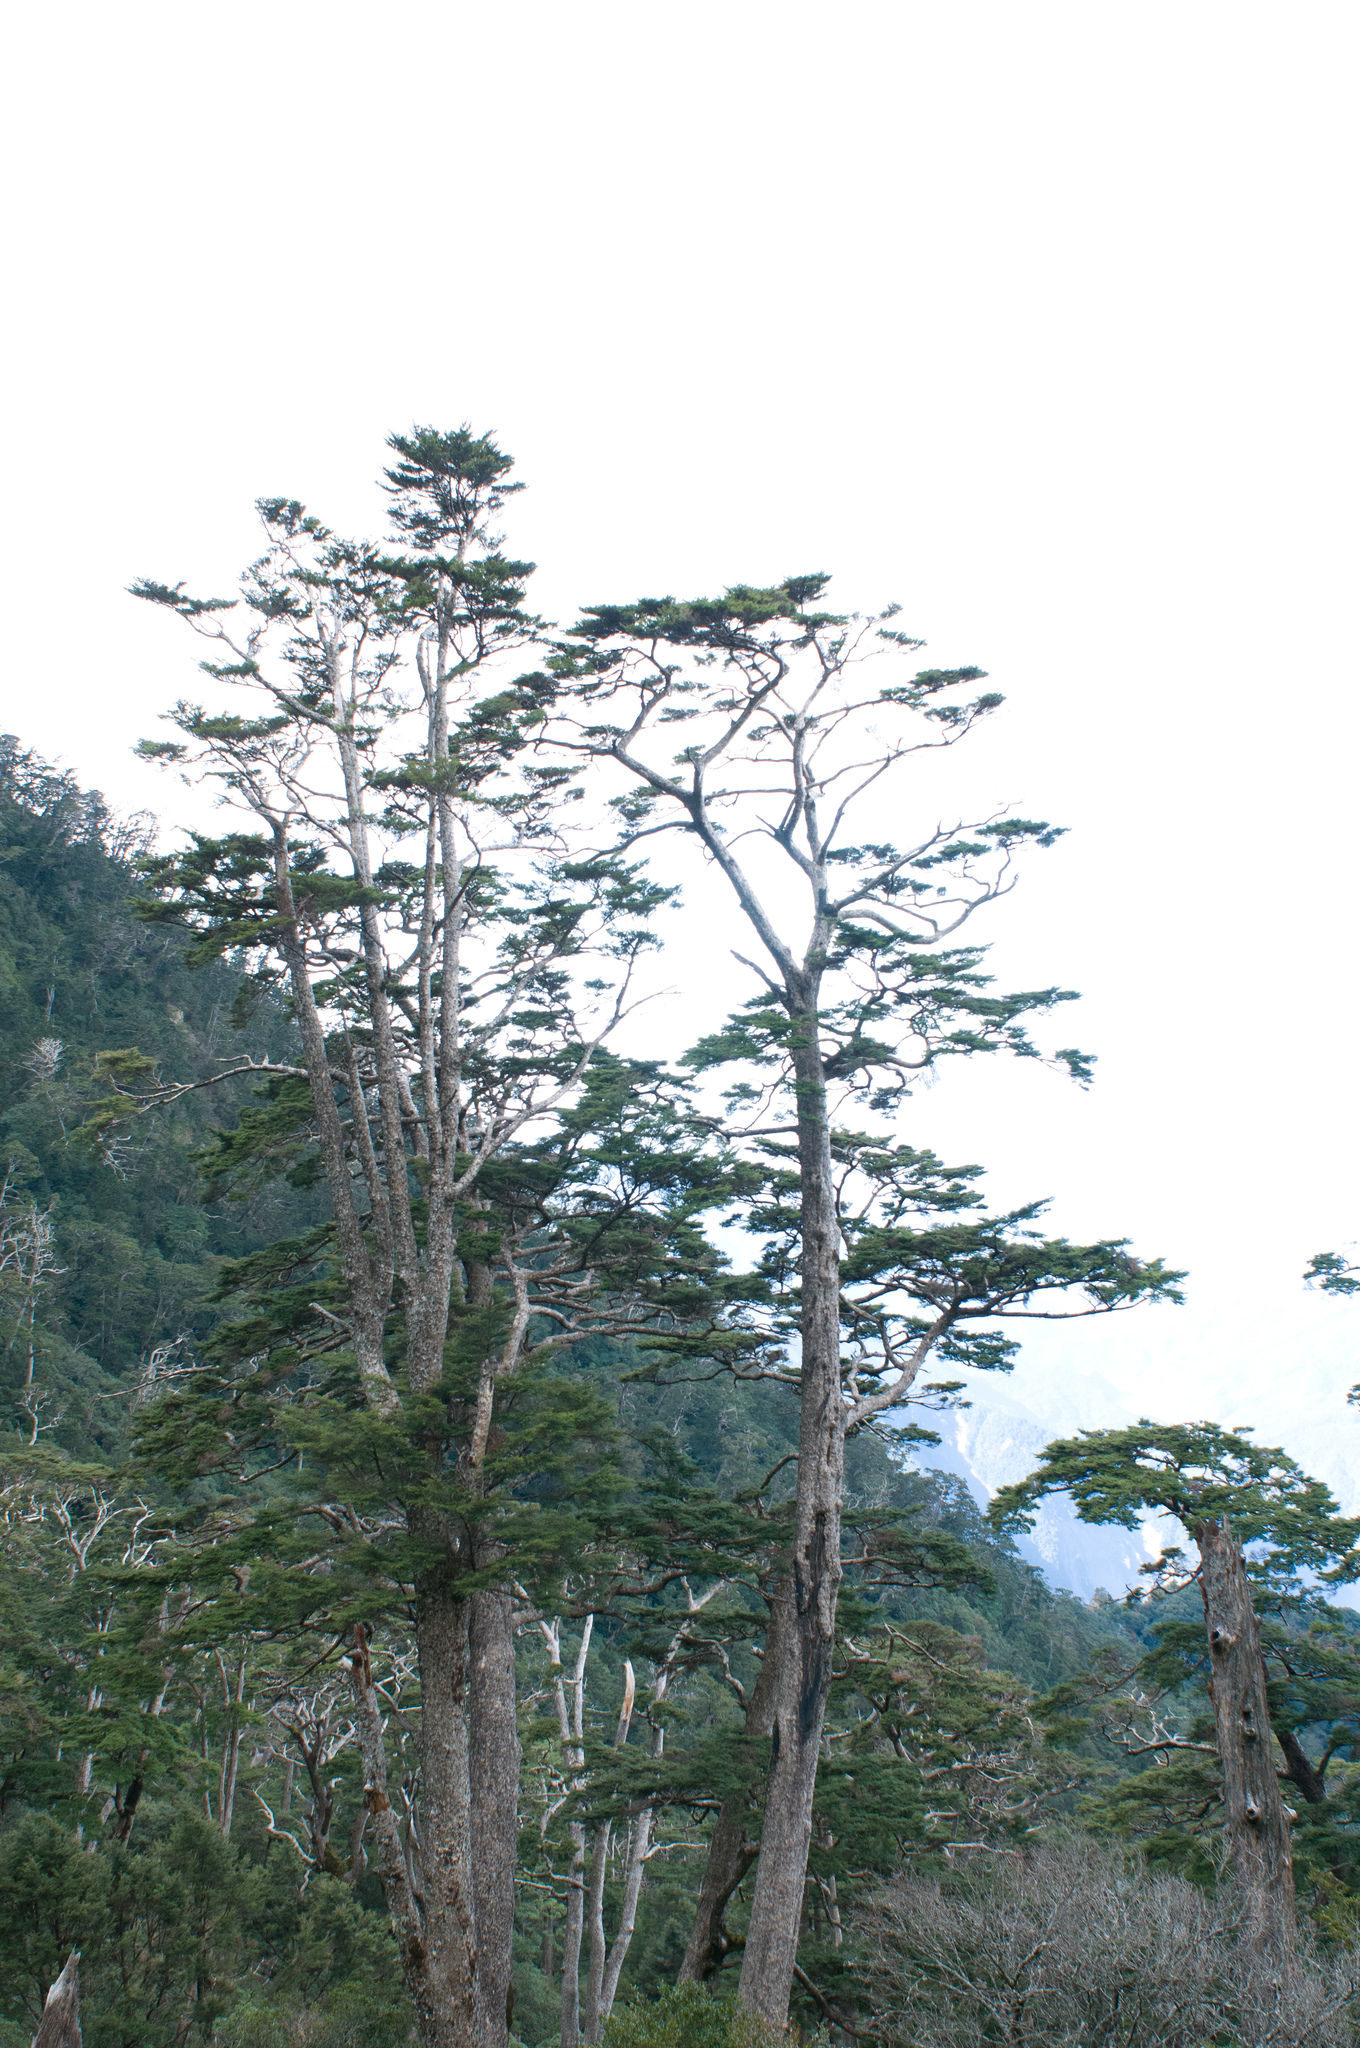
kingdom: Plantae
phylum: Tracheophyta
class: Pinopsida
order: Pinales
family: Pinaceae
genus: Tsuga
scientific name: Tsuga chinensis
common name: Chinese hemlock
